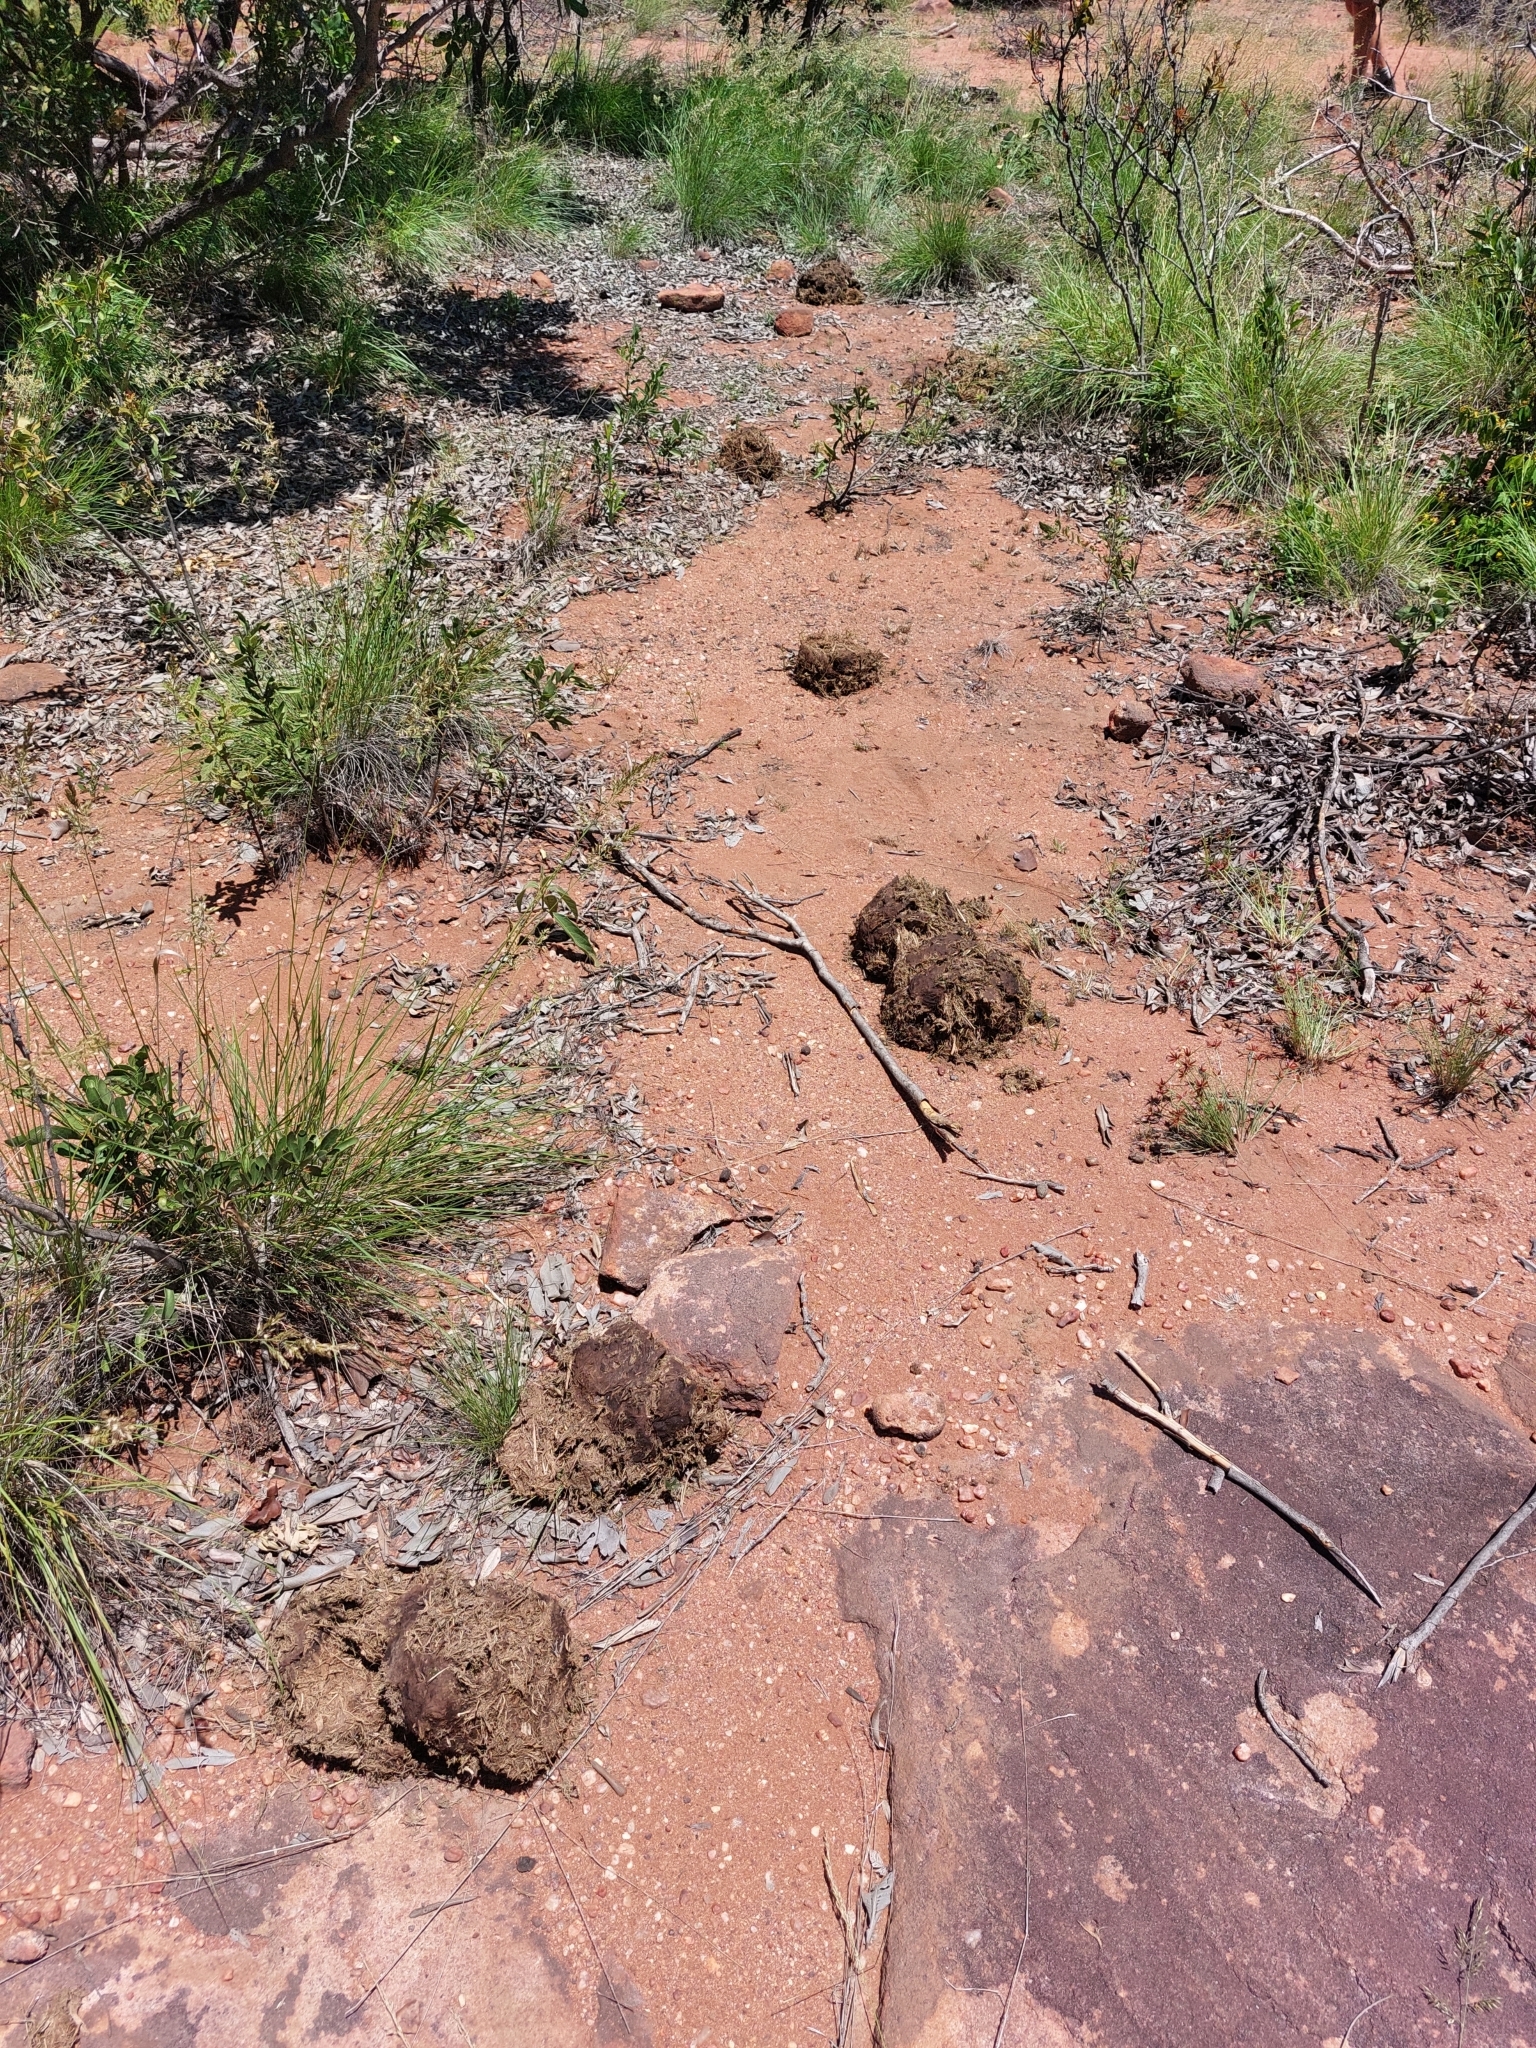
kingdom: Animalia
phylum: Chordata
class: Mammalia
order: Proboscidea
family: Elephantidae
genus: Loxodonta
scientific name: Loxodonta africana
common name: African elephant
